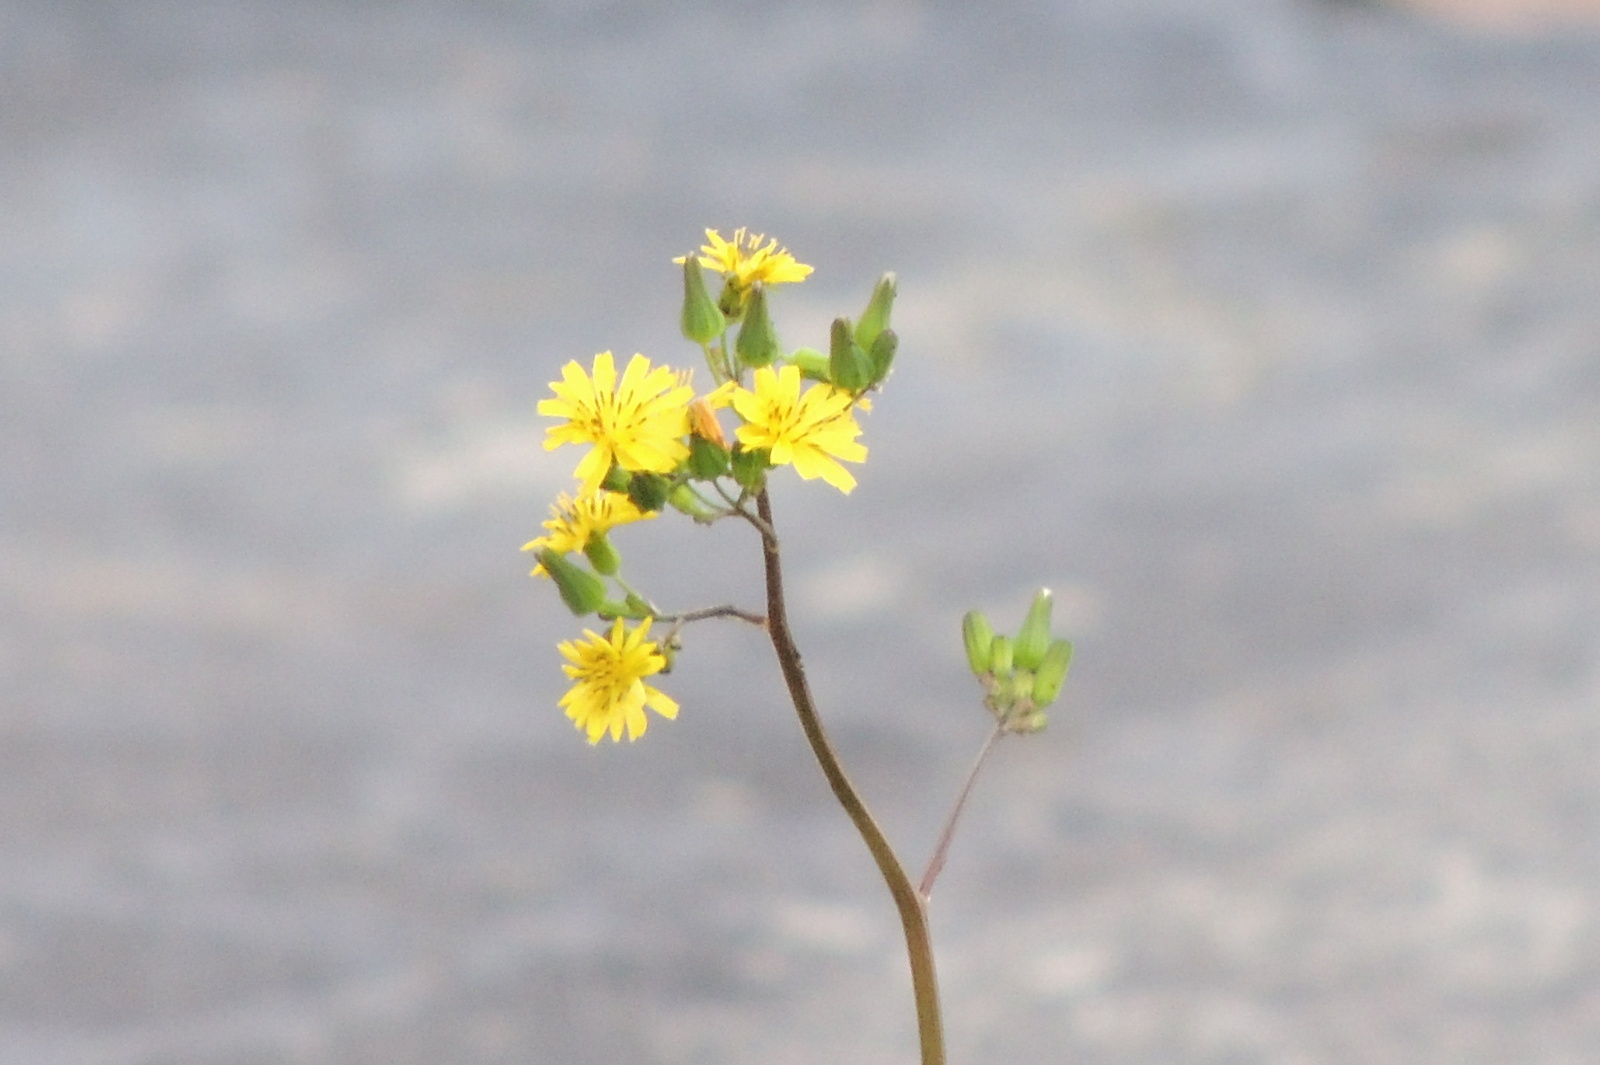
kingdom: Plantae
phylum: Tracheophyta
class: Magnoliopsida
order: Asterales
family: Asteraceae
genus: Youngia
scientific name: Youngia japonica
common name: Oriental false hawksbeard
